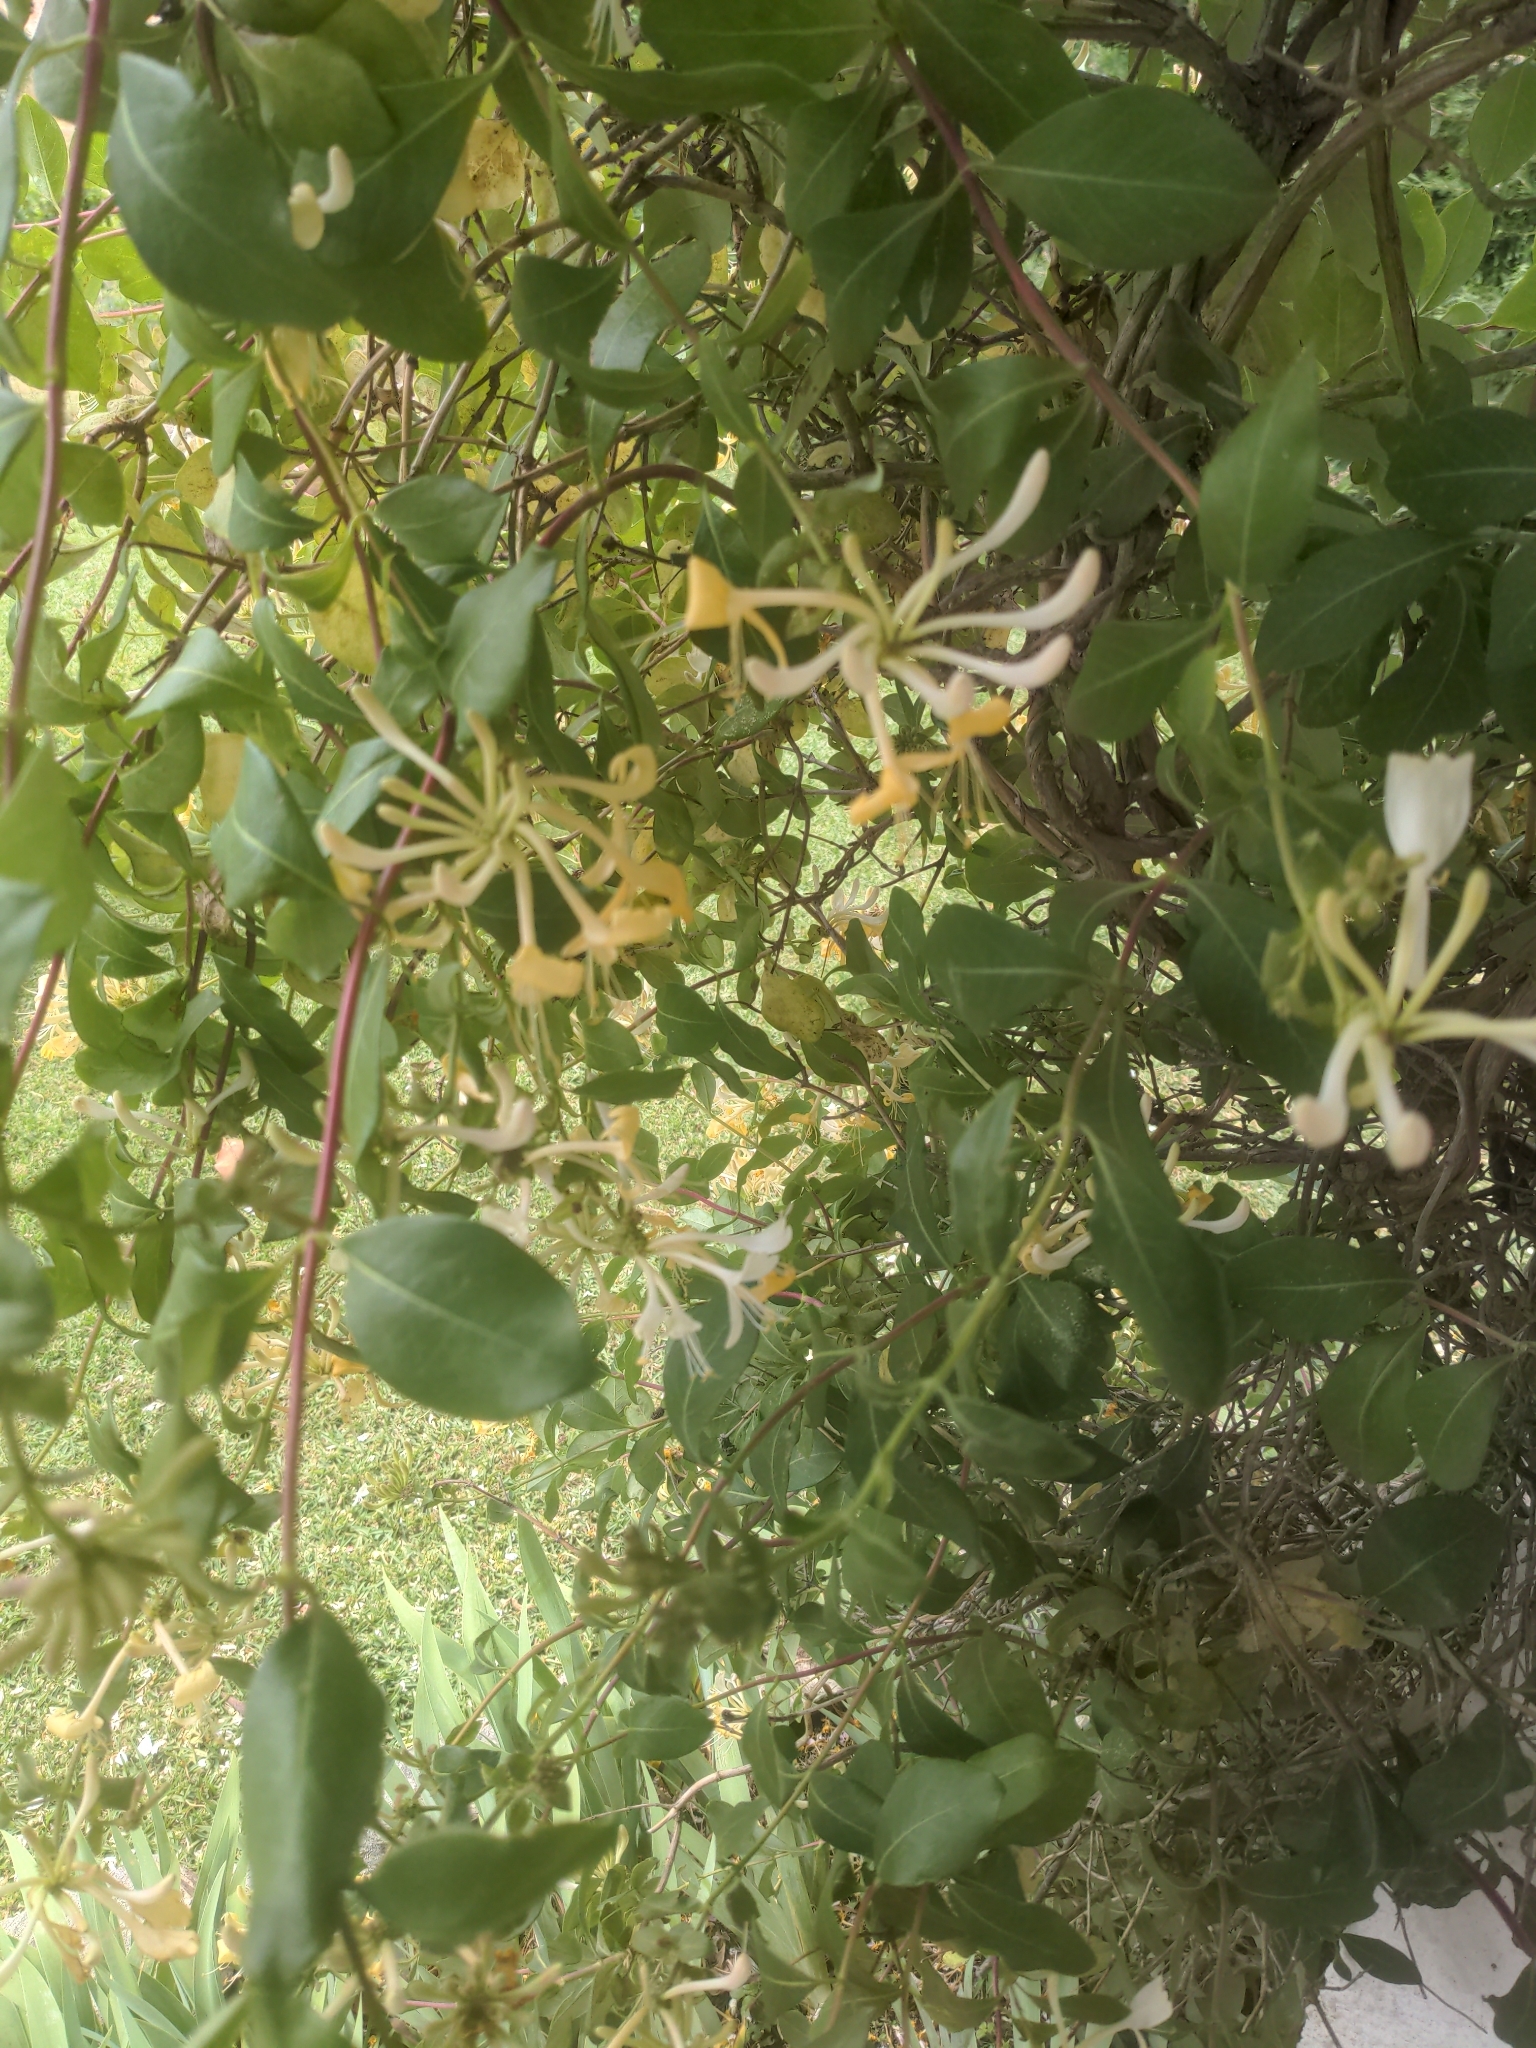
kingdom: Plantae
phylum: Tracheophyta
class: Magnoliopsida
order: Dipsacales
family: Caprifoliaceae
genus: Lonicera
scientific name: Lonicera periclymenum
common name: European honeysuckle
